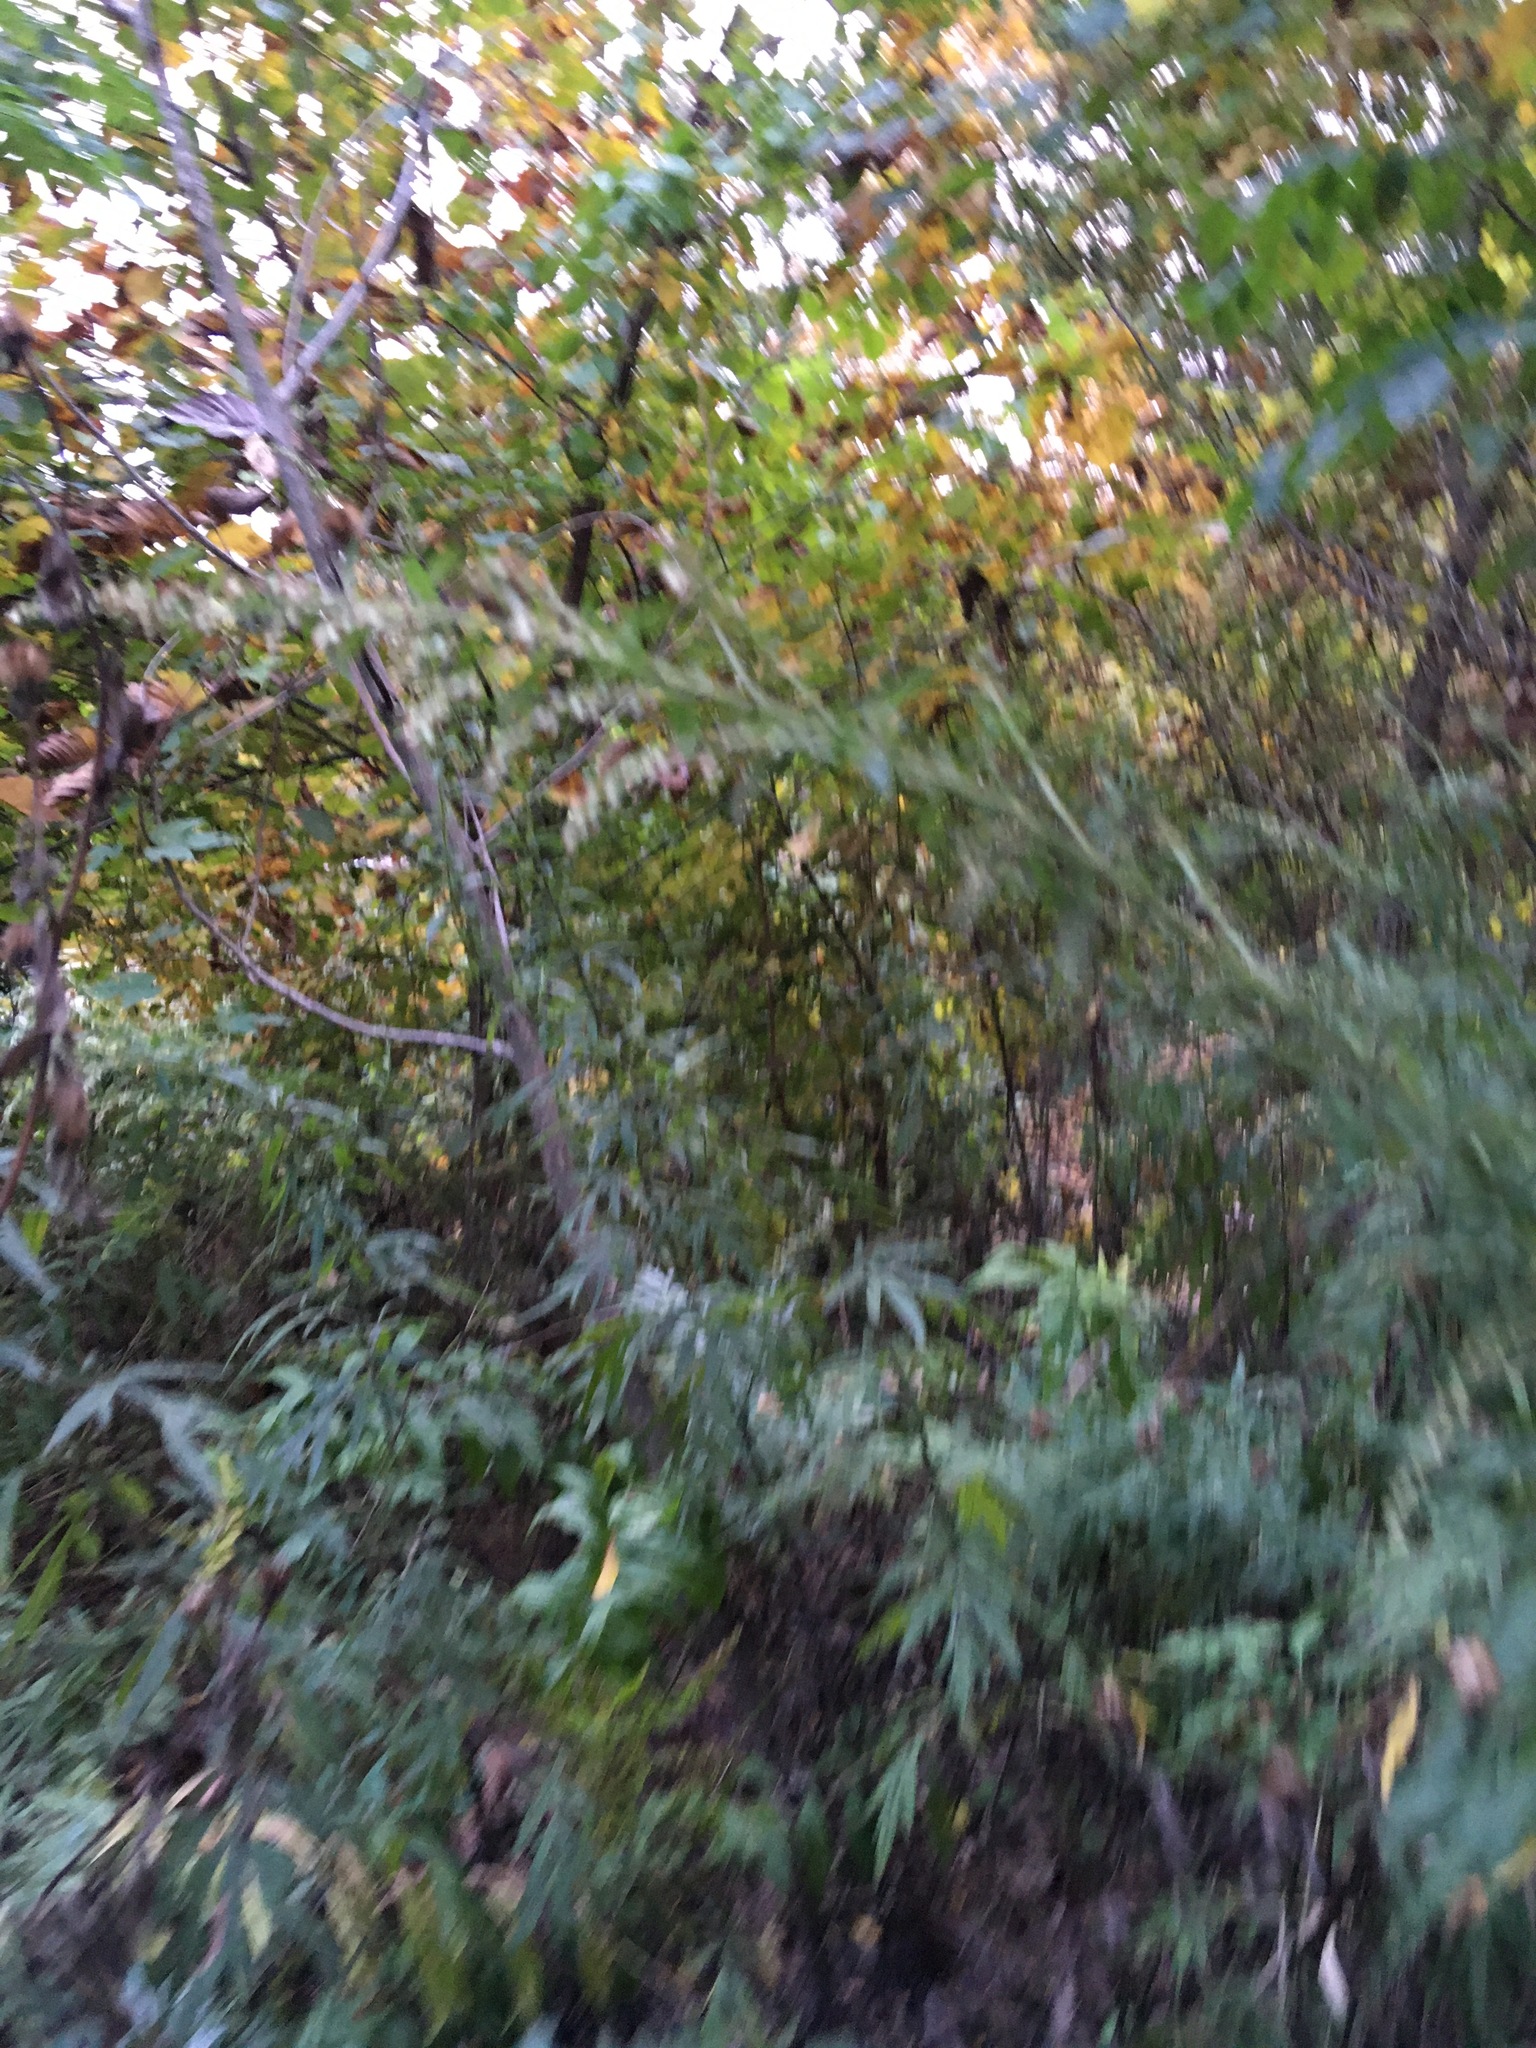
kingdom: Plantae
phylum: Tracheophyta
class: Magnoliopsida
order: Asterales
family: Asteraceae
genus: Artemisia
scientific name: Artemisia vulgaris
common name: Mugwort
